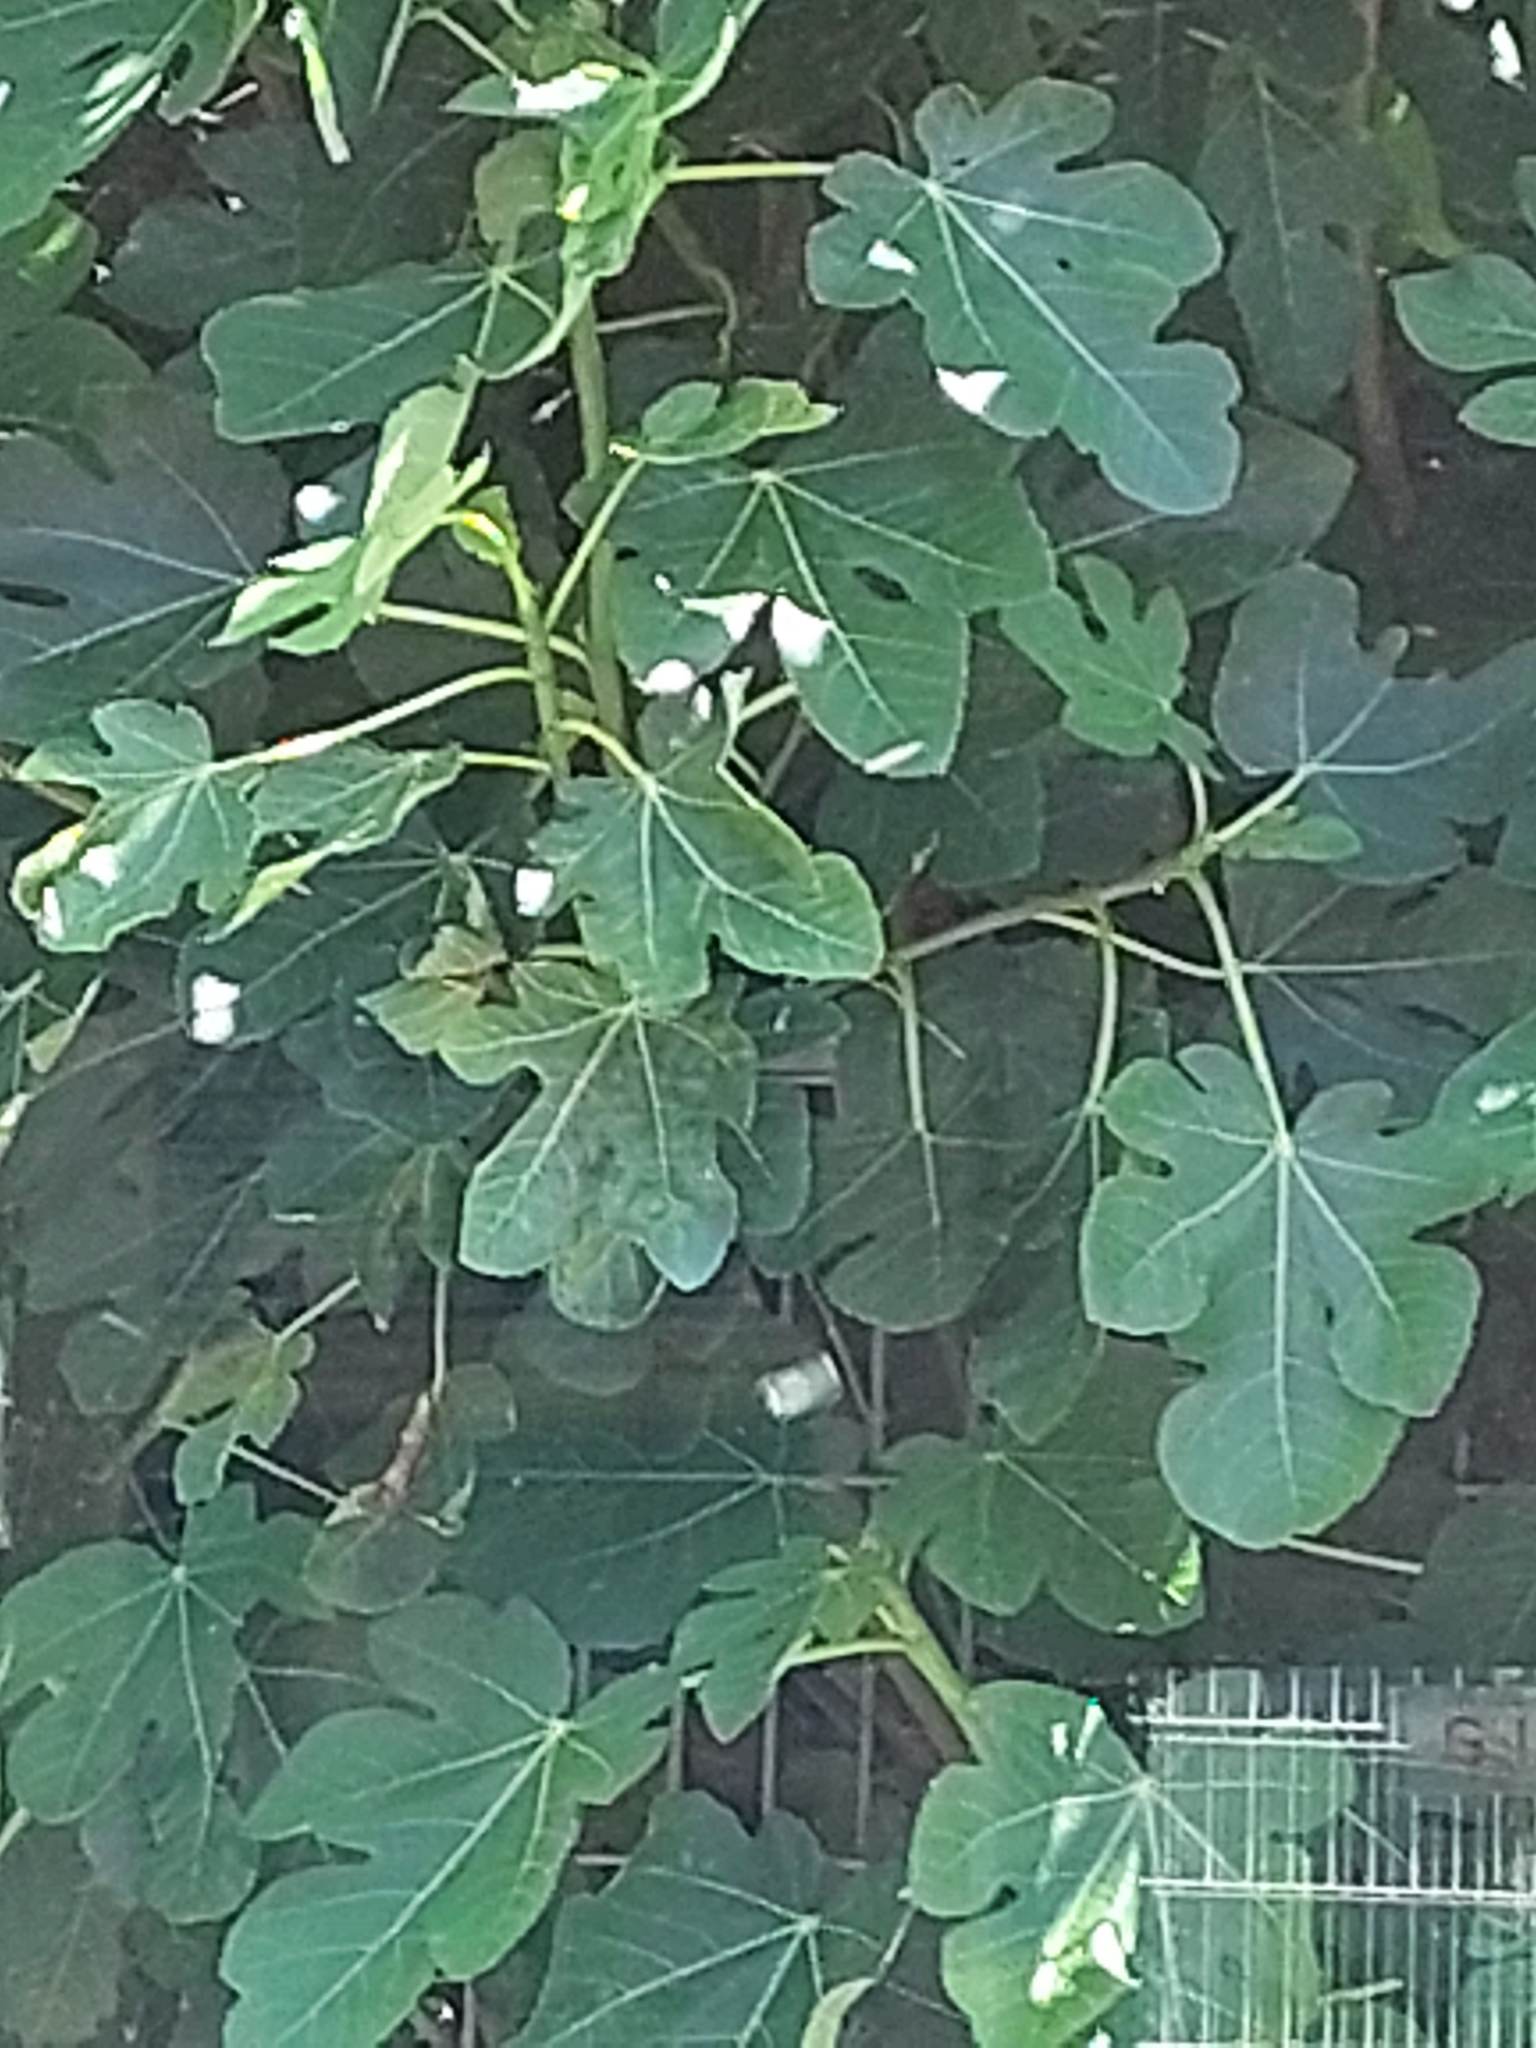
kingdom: Plantae
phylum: Tracheophyta
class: Magnoliopsida
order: Rosales
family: Moraceae
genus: Ficus
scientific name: Ficus carica
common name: Fig
